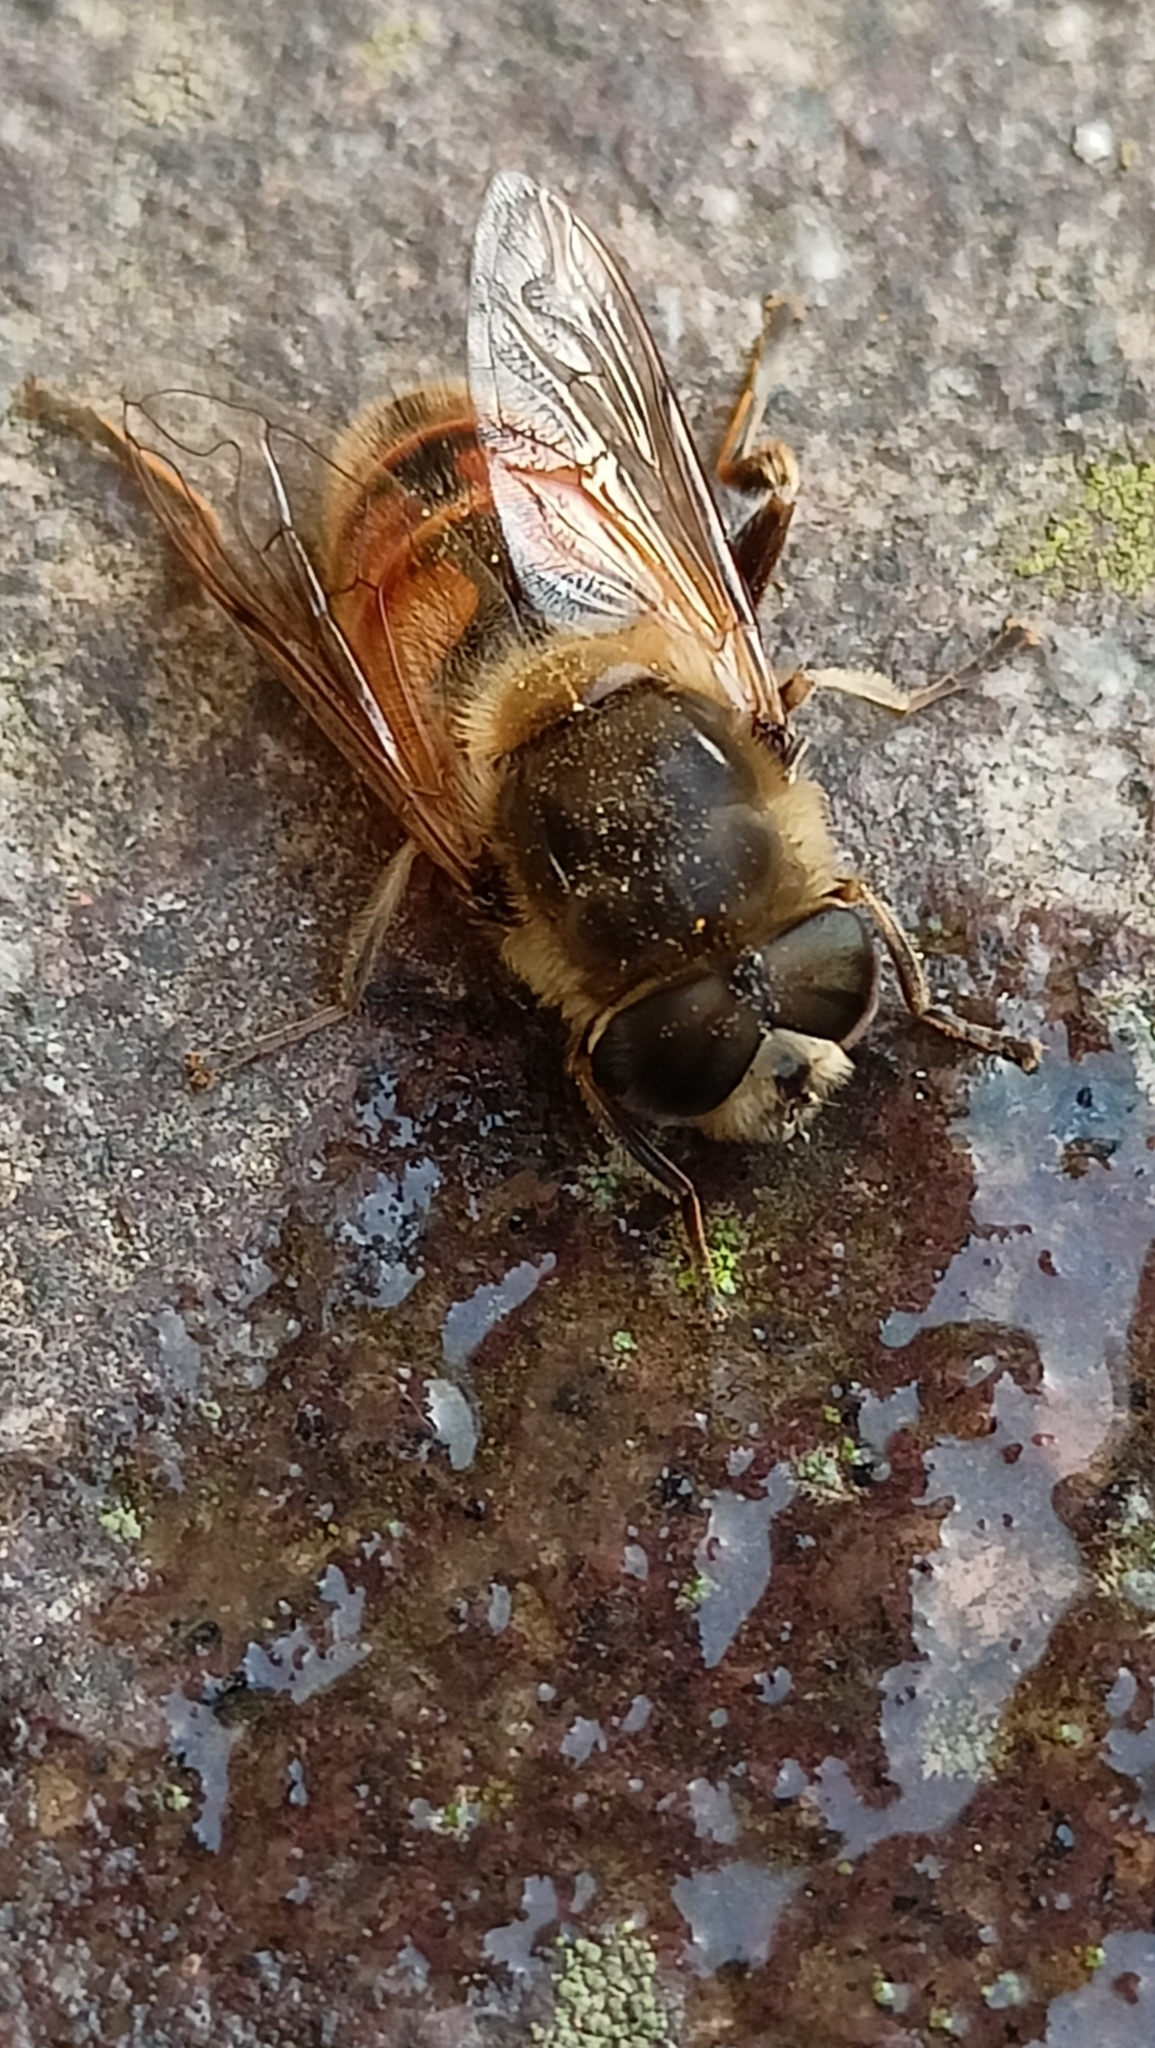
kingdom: Animalia
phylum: Arthropoda
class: Insecta
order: Diptera
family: Syrphidae
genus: Eristalis
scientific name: Eristalis tenax
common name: Drone fly
